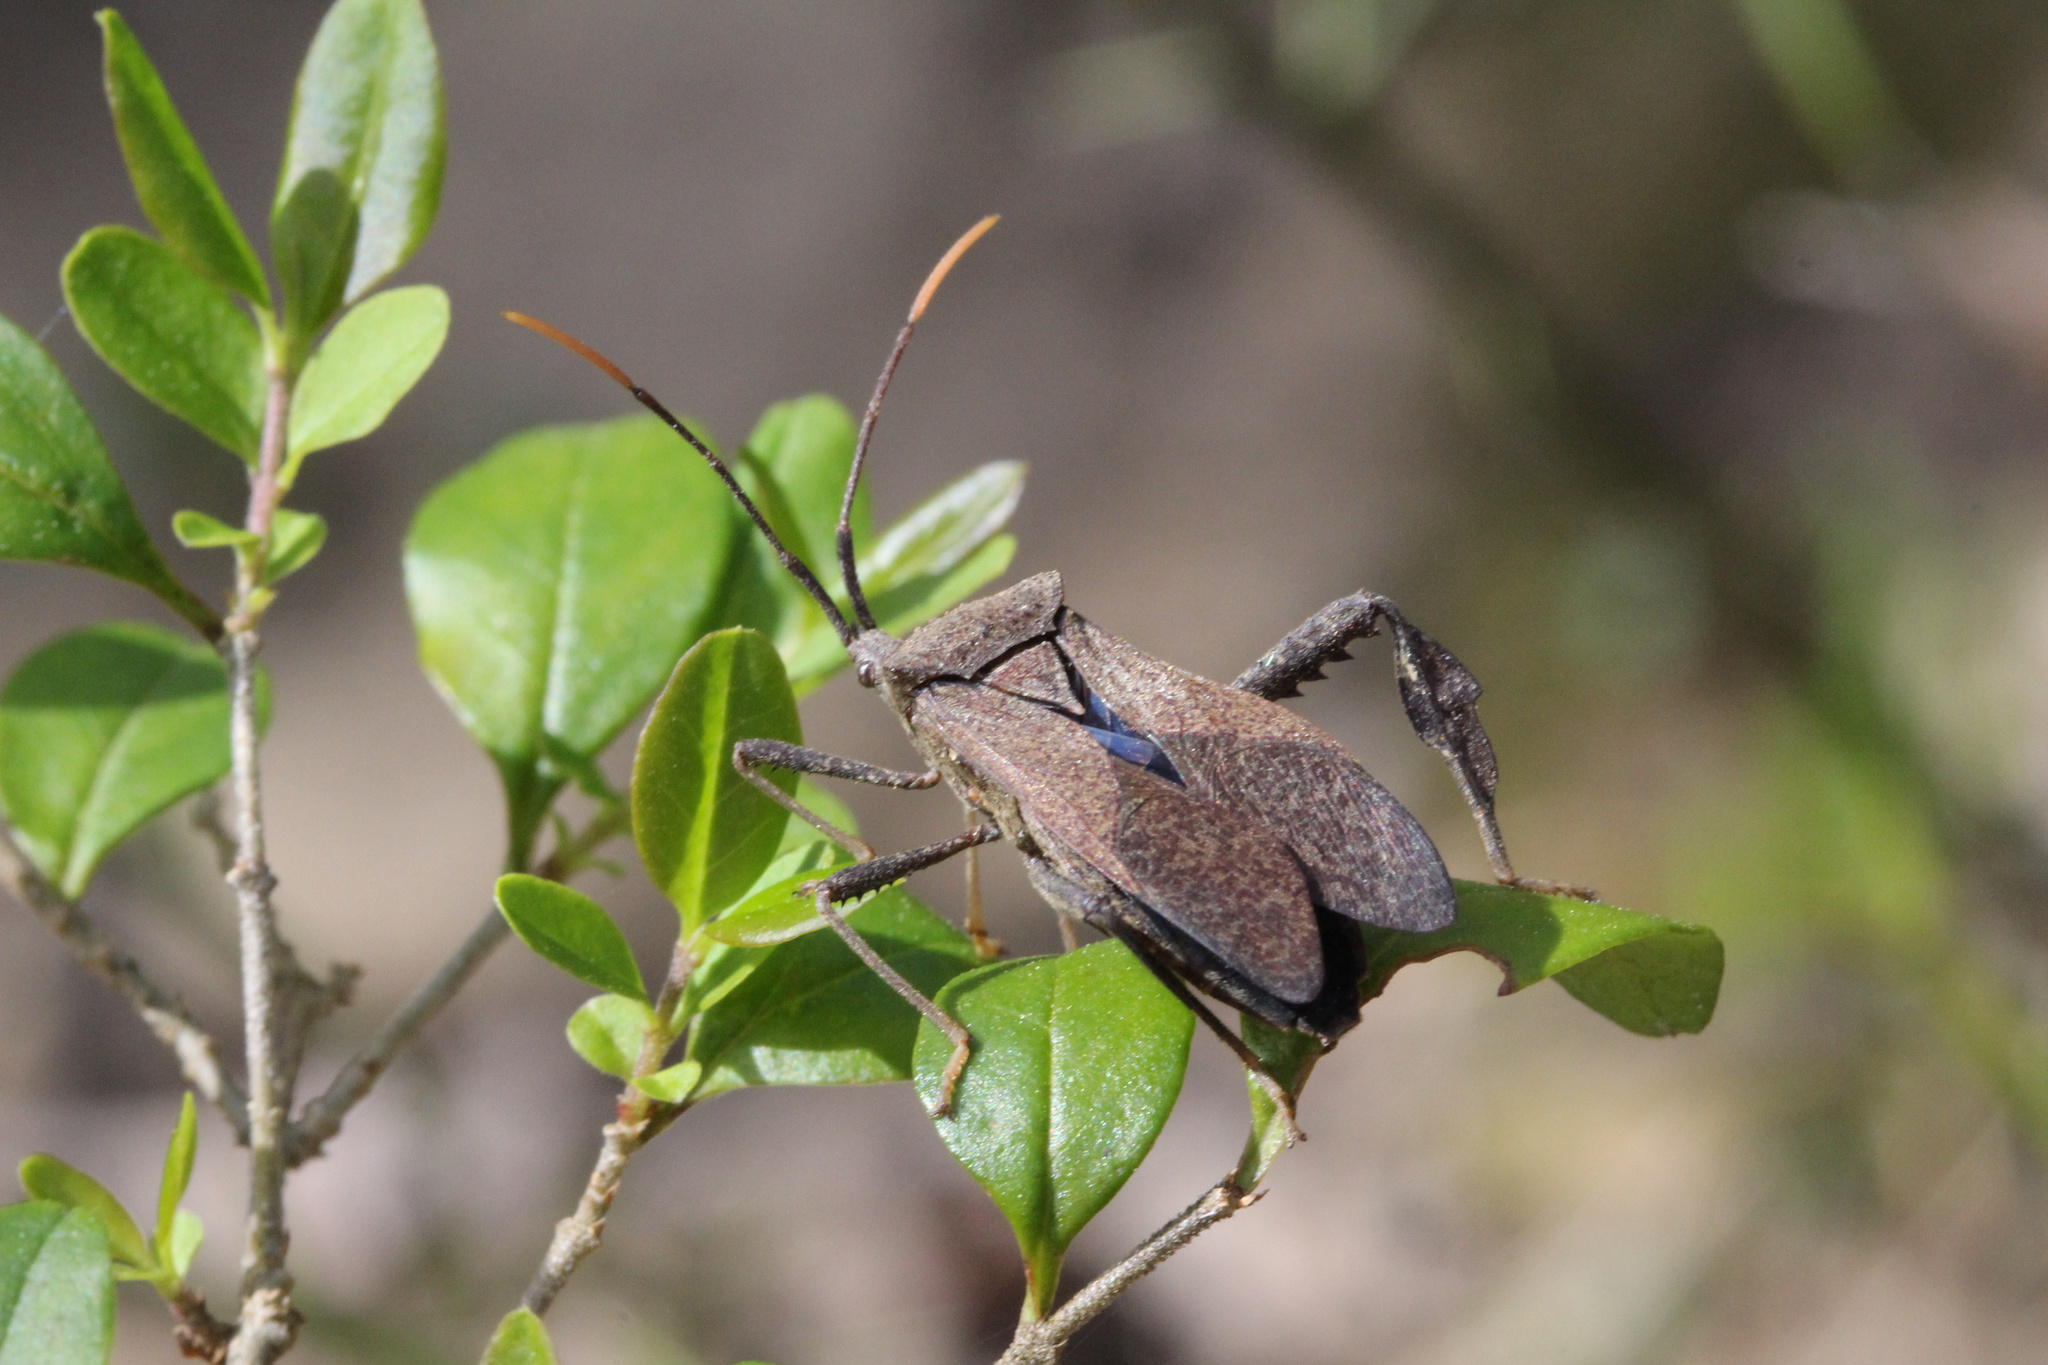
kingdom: Animalia
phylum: Arthropoda
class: Insecta
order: Hemiptera
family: Coreidae
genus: Acanthocephala
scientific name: Acanthocephala terminalis
